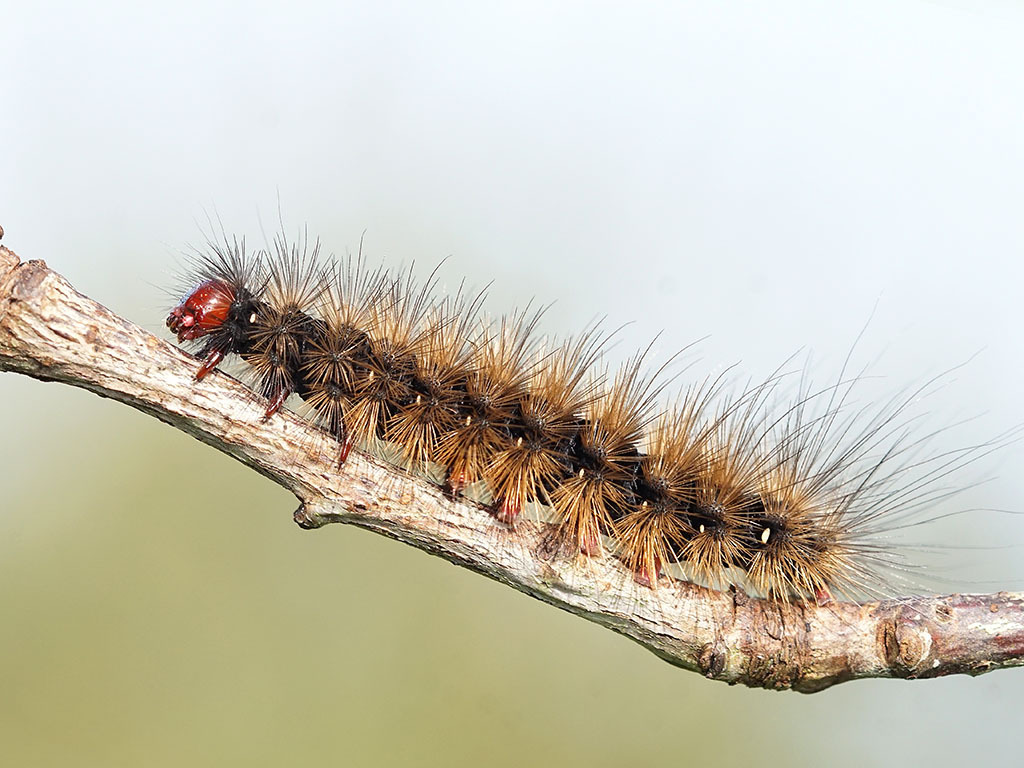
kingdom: Animalia
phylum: Arthropoda
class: Insecta
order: Lepidoptera
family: Erebidae
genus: Epicallia
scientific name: Epicallia villica
